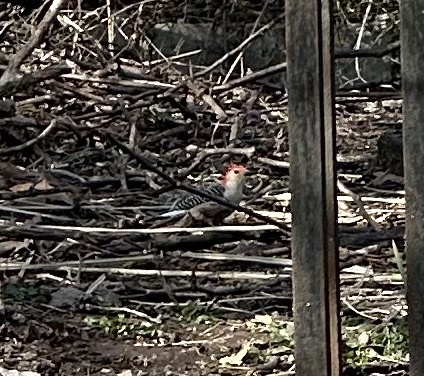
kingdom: Animalia
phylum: Chordata
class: Aves
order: Piciformes
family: Picidae
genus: Melanerpes
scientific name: Melanerpes carolinus
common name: Red-bellied woodpecker
